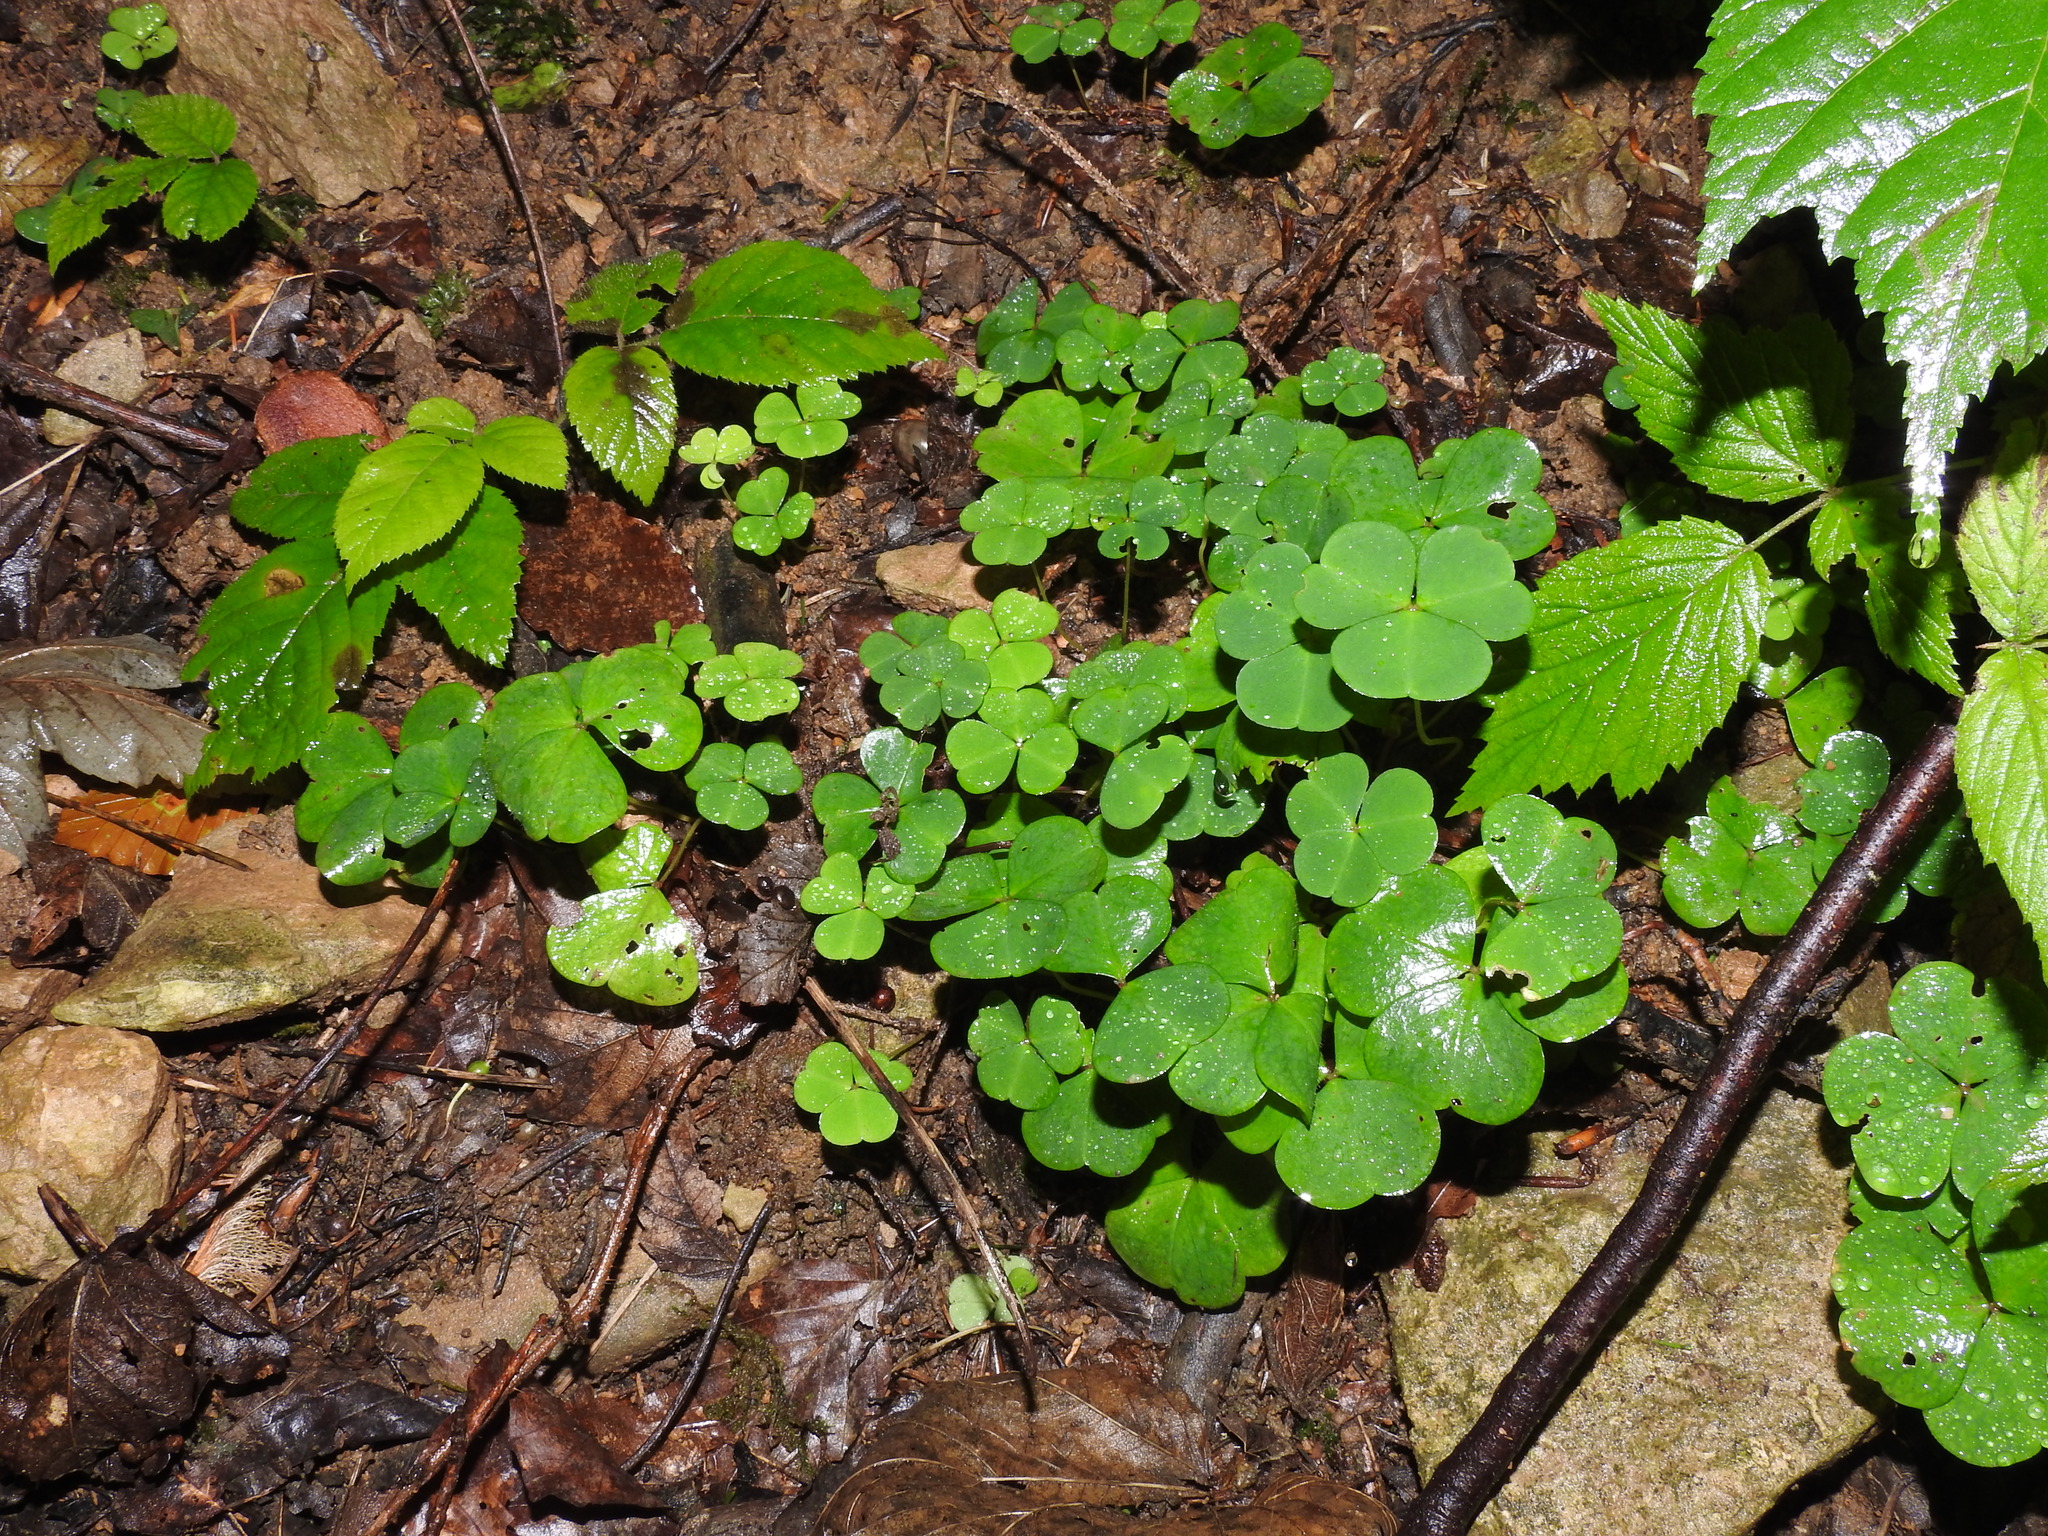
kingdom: Plantae
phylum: Tracheophyta
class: Magnoliopsida
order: Oxalidales
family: Oxalidaceae
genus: Oxalis
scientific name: Oxalis acetosella
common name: Wood-sorrel
